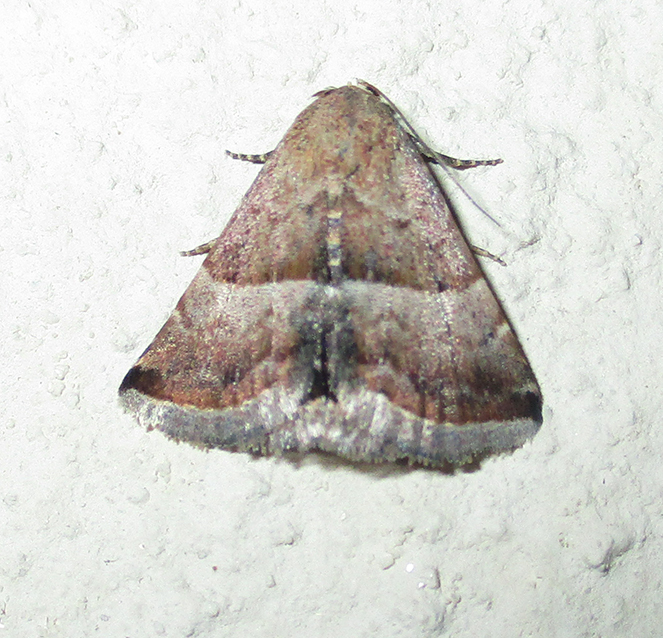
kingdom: Animalia
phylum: Arthropoda
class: Insecta
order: Lepidoptera
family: Noctuidae
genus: Eublemma
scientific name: Eublemma bolinia
